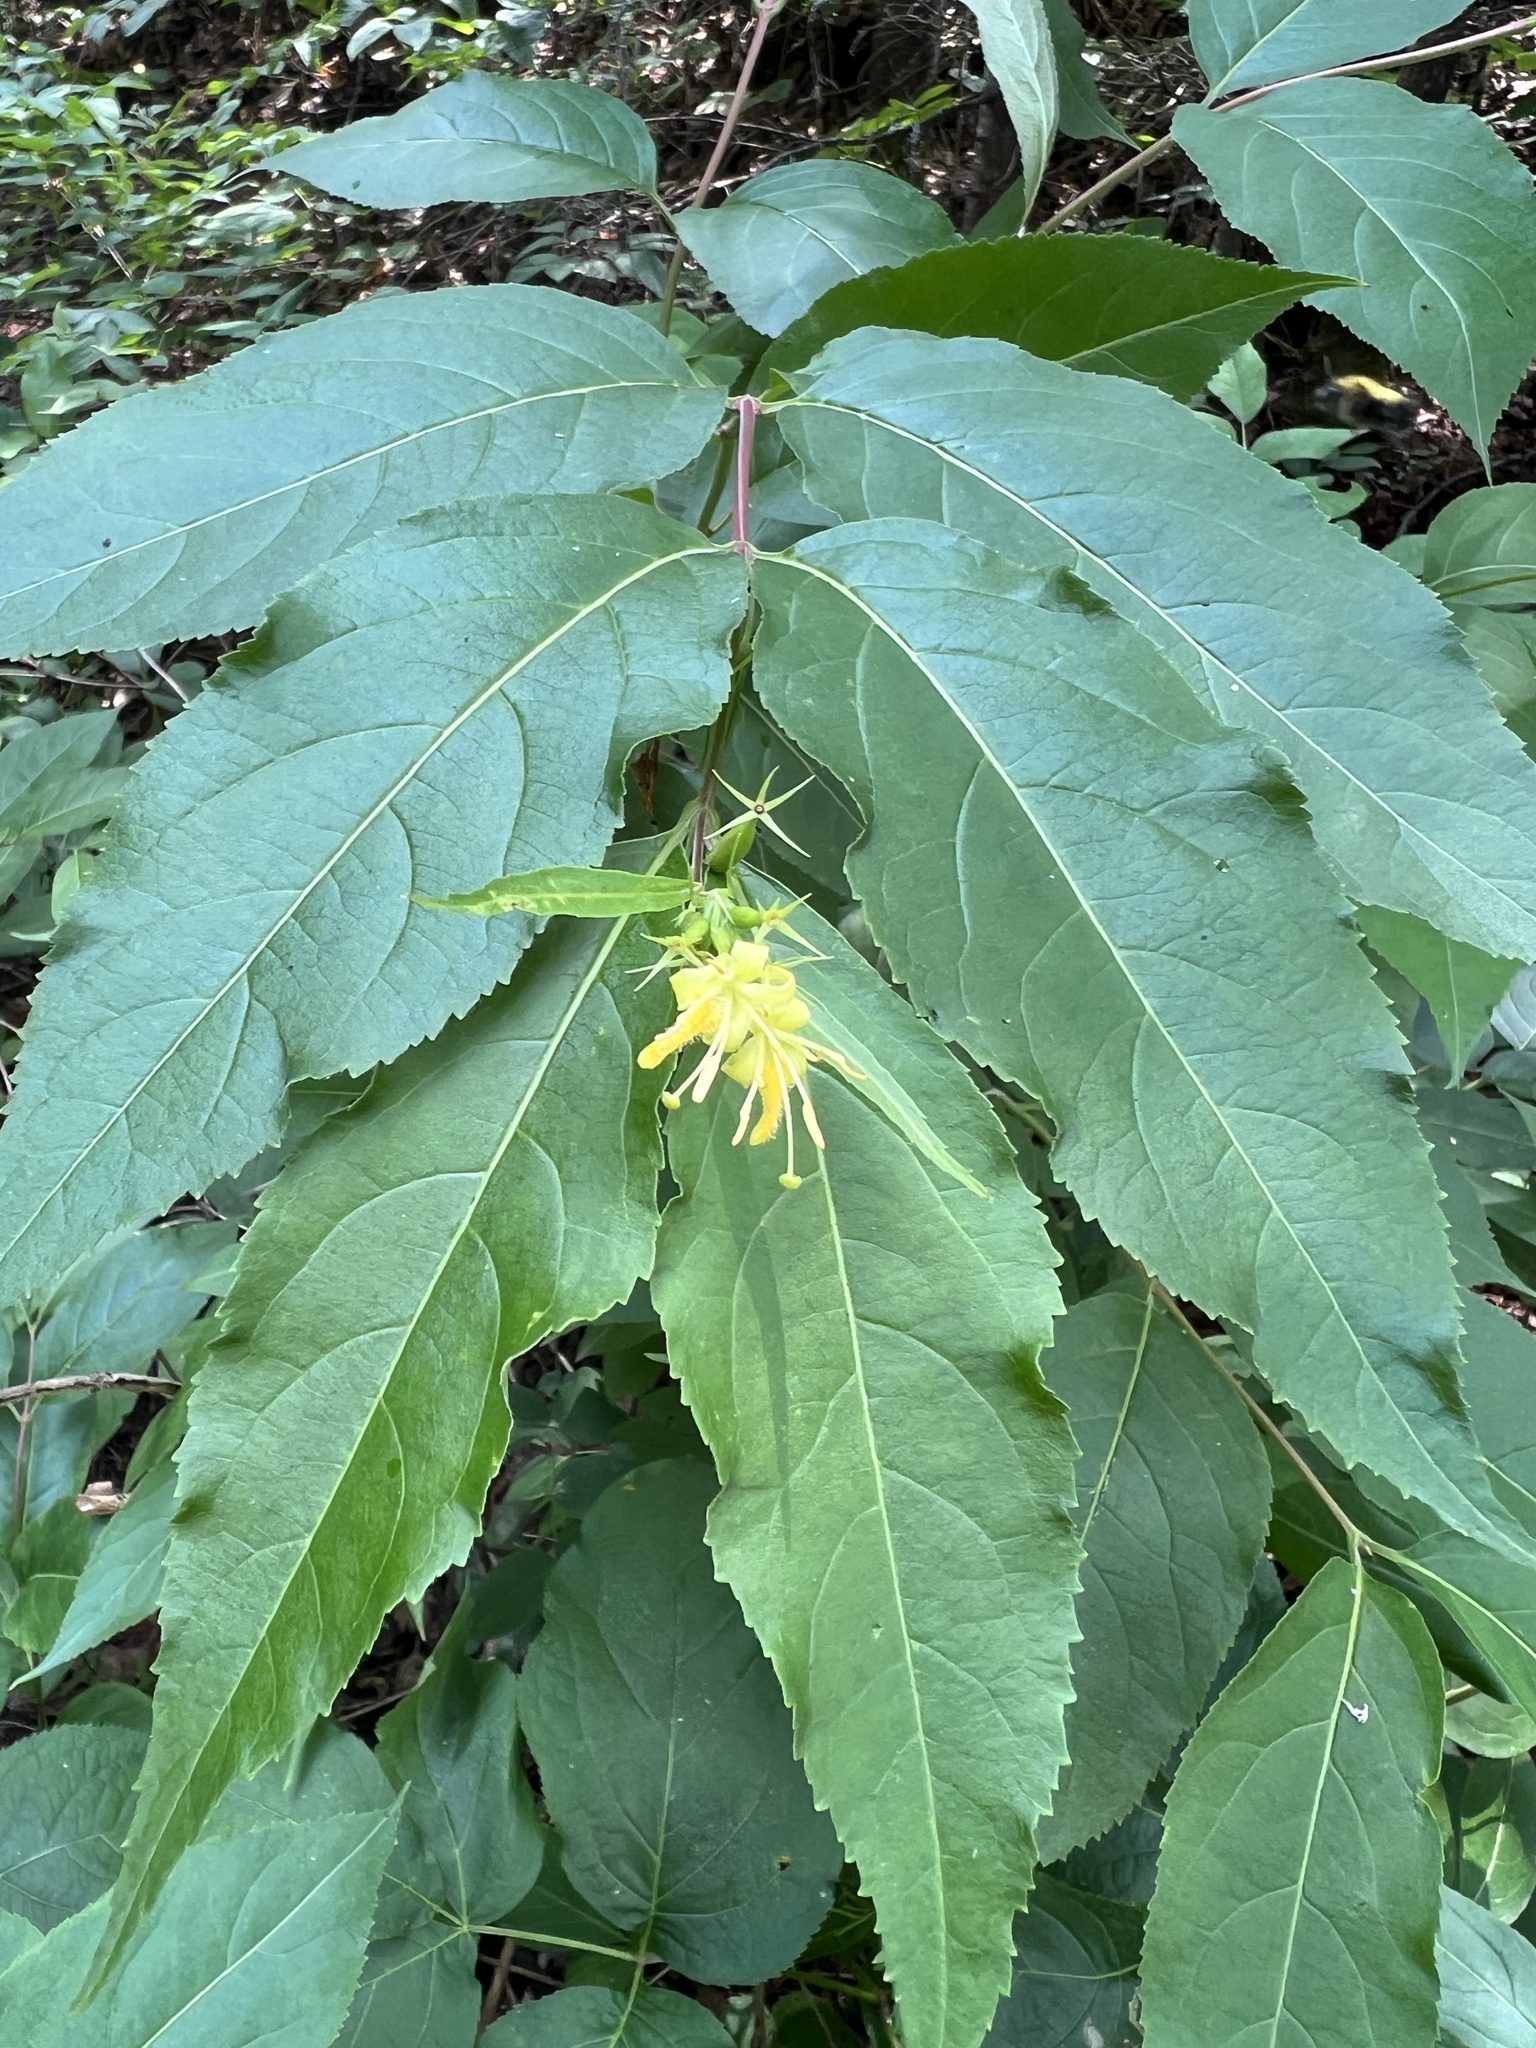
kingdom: Plantae
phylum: Tracheophyta
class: Magnoliopsida
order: Dipsacales
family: Caprifoliaceae
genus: Diervilla
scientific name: Diervilla lonicera
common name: Bush-honeysuckle
